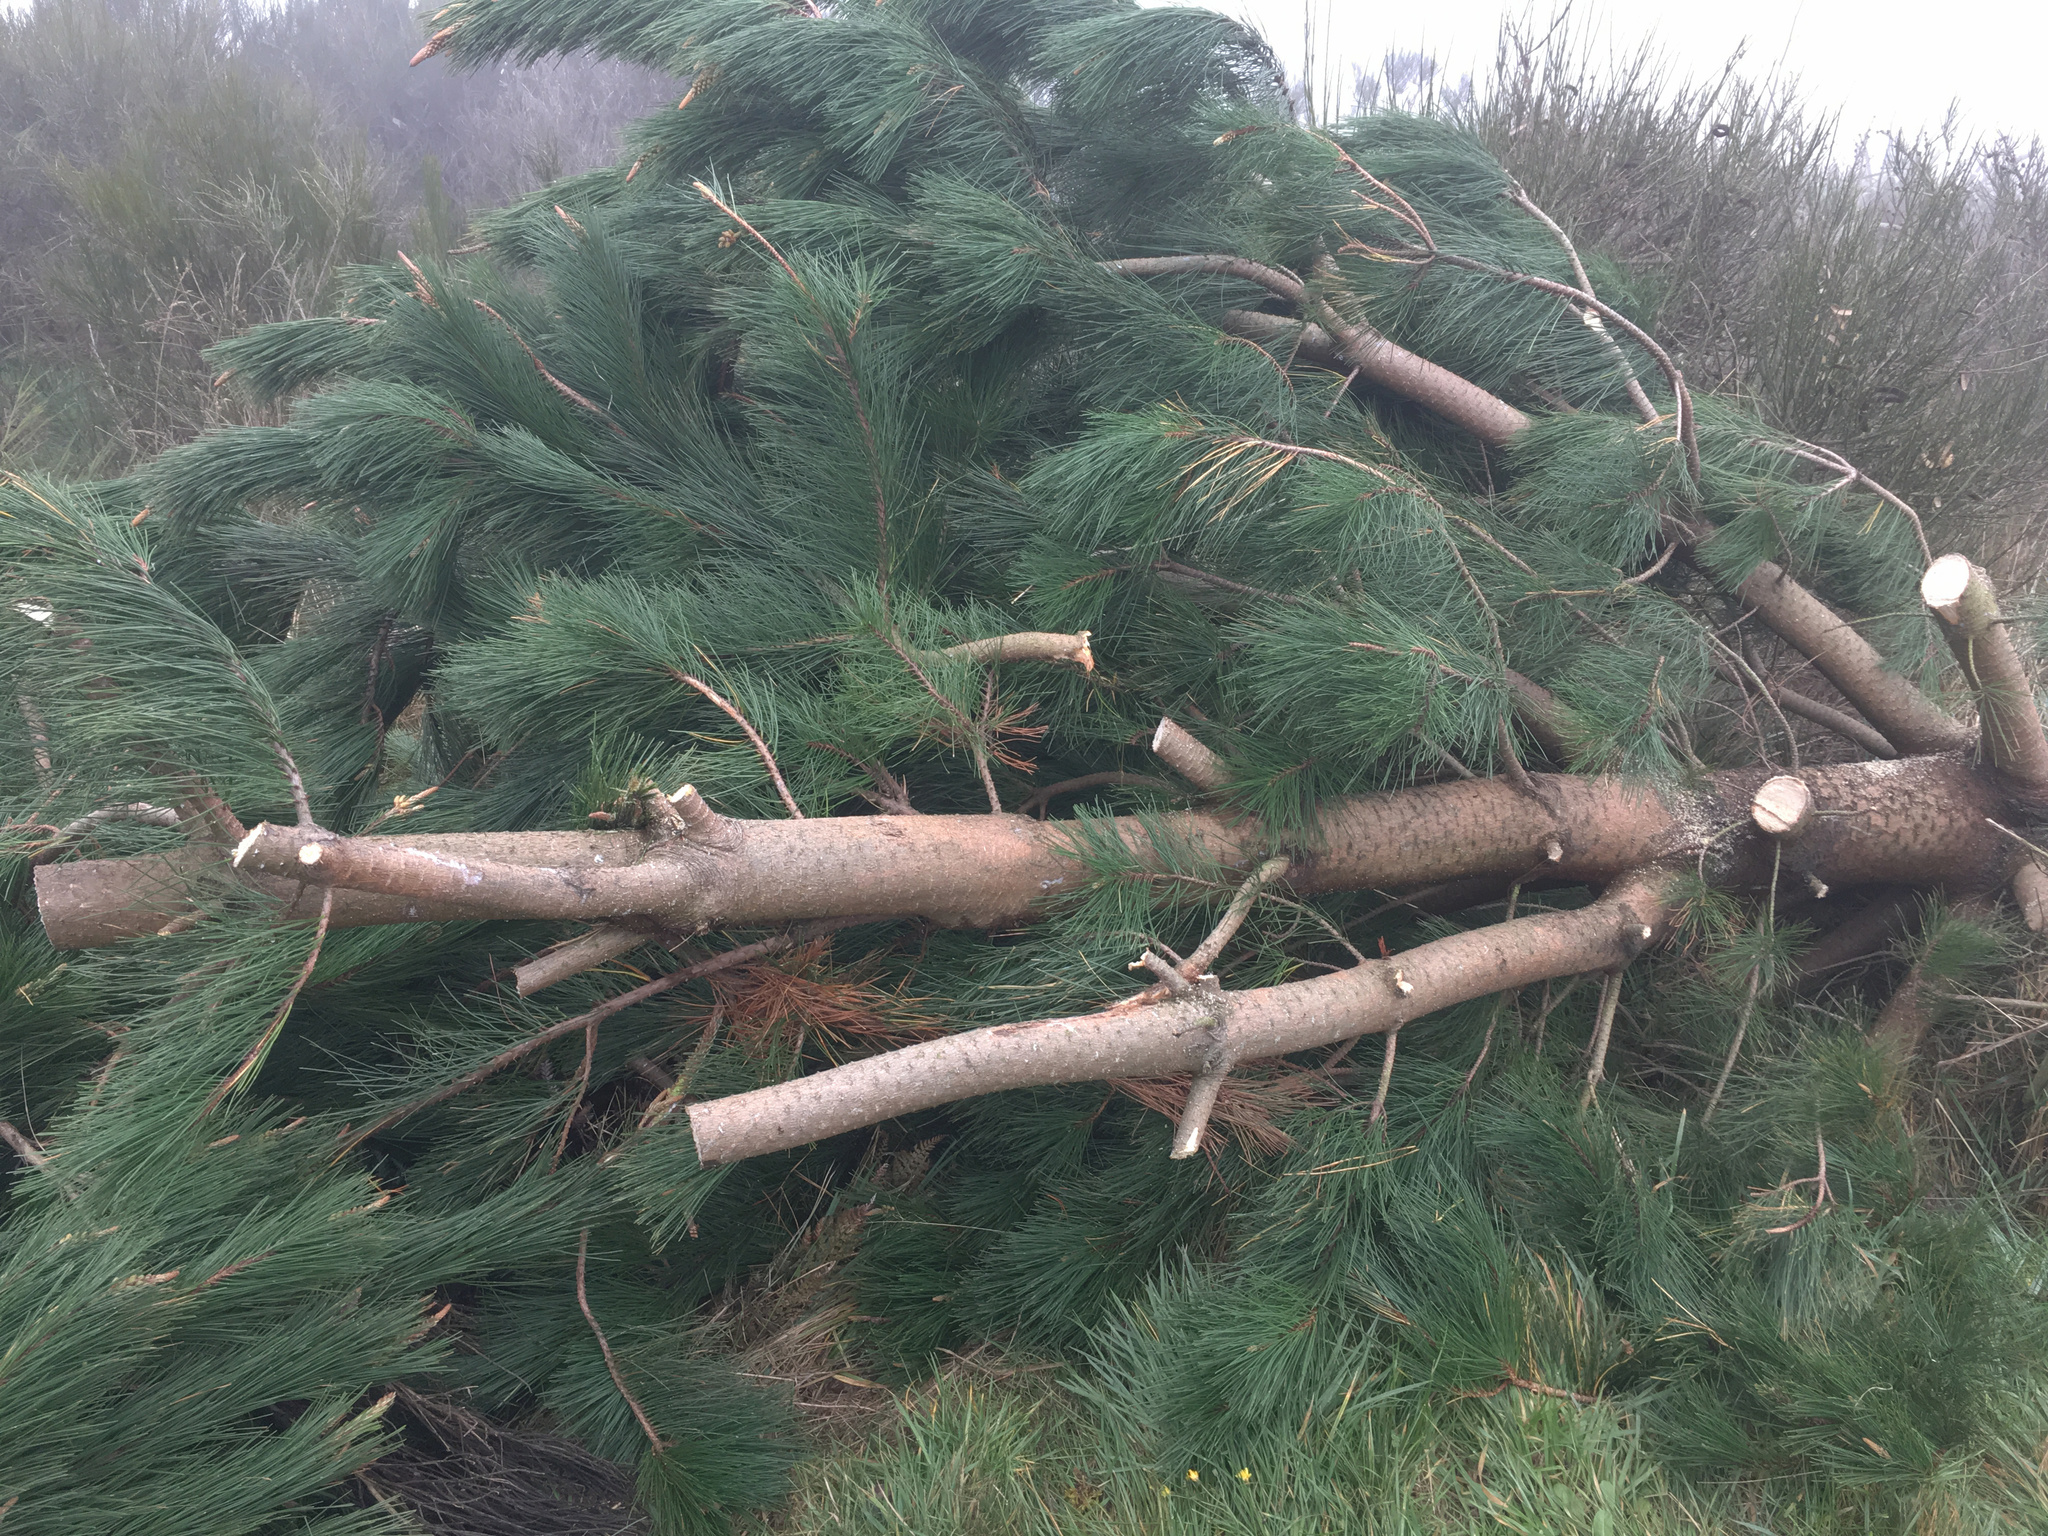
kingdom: Plantae
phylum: Tracheophyta
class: Pinopsida
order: Pinales
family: Pinaceae
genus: Pinus
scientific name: Pinus radiata
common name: Monterey pine
